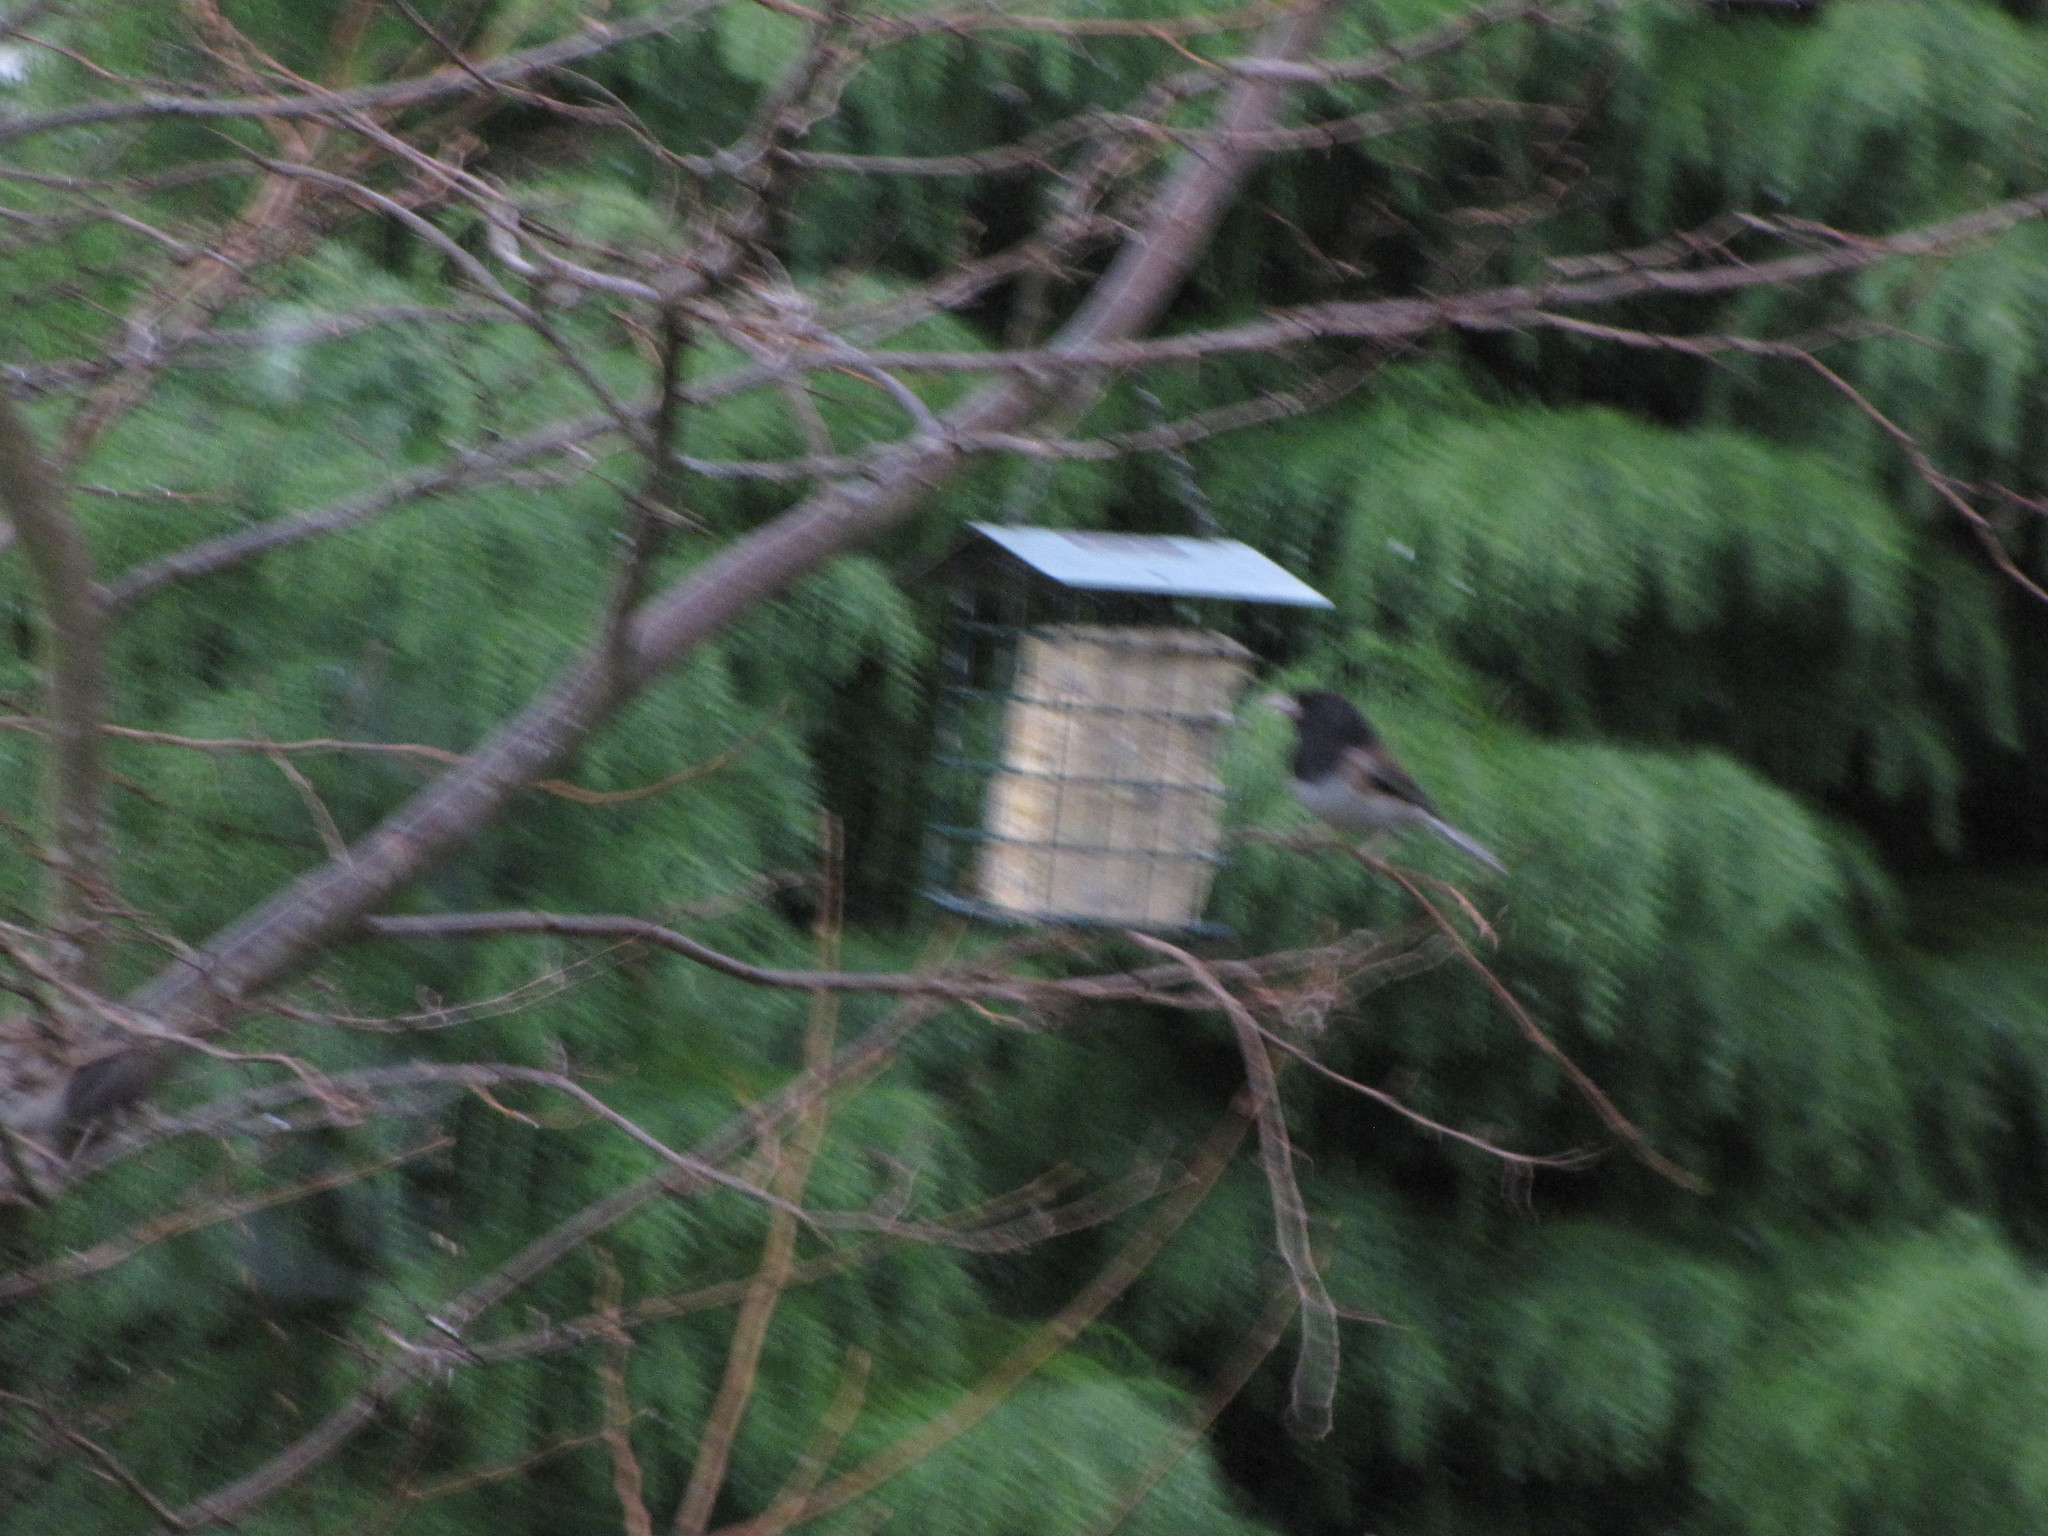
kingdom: Animalia
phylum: Chordata
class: Aves
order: Passeriformes
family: Passerellidae
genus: Junco
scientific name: Junco hyemalis
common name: Dark-eyed junco
